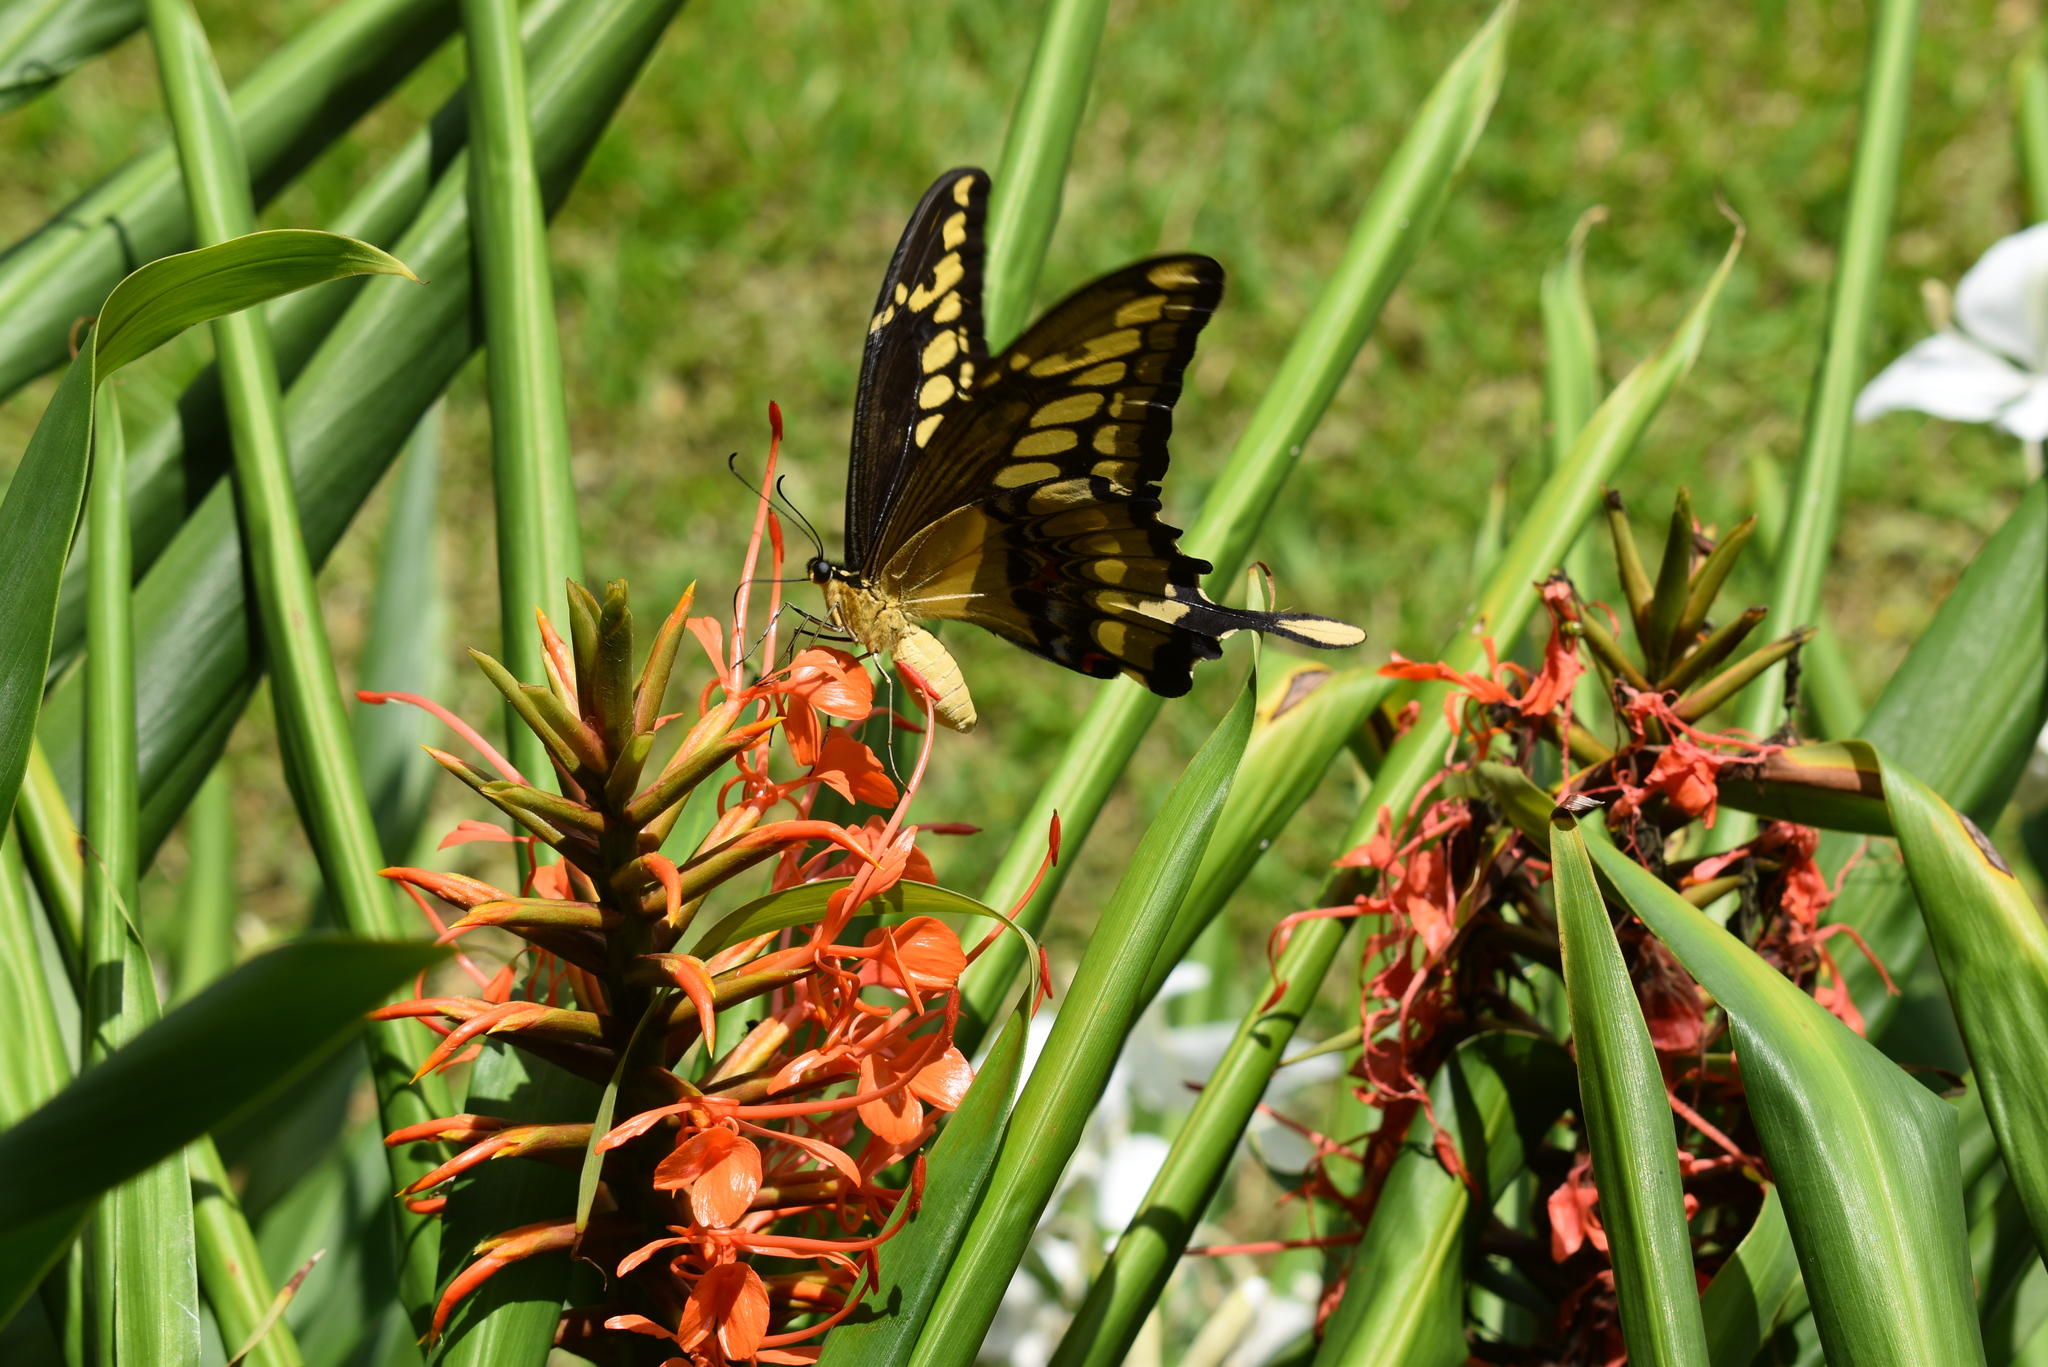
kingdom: Animalia
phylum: Arthropoda
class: Insecta
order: Lepidoptera
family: Papilionidae
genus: Papilio
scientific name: Papilio thoas
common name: King swallowtail
